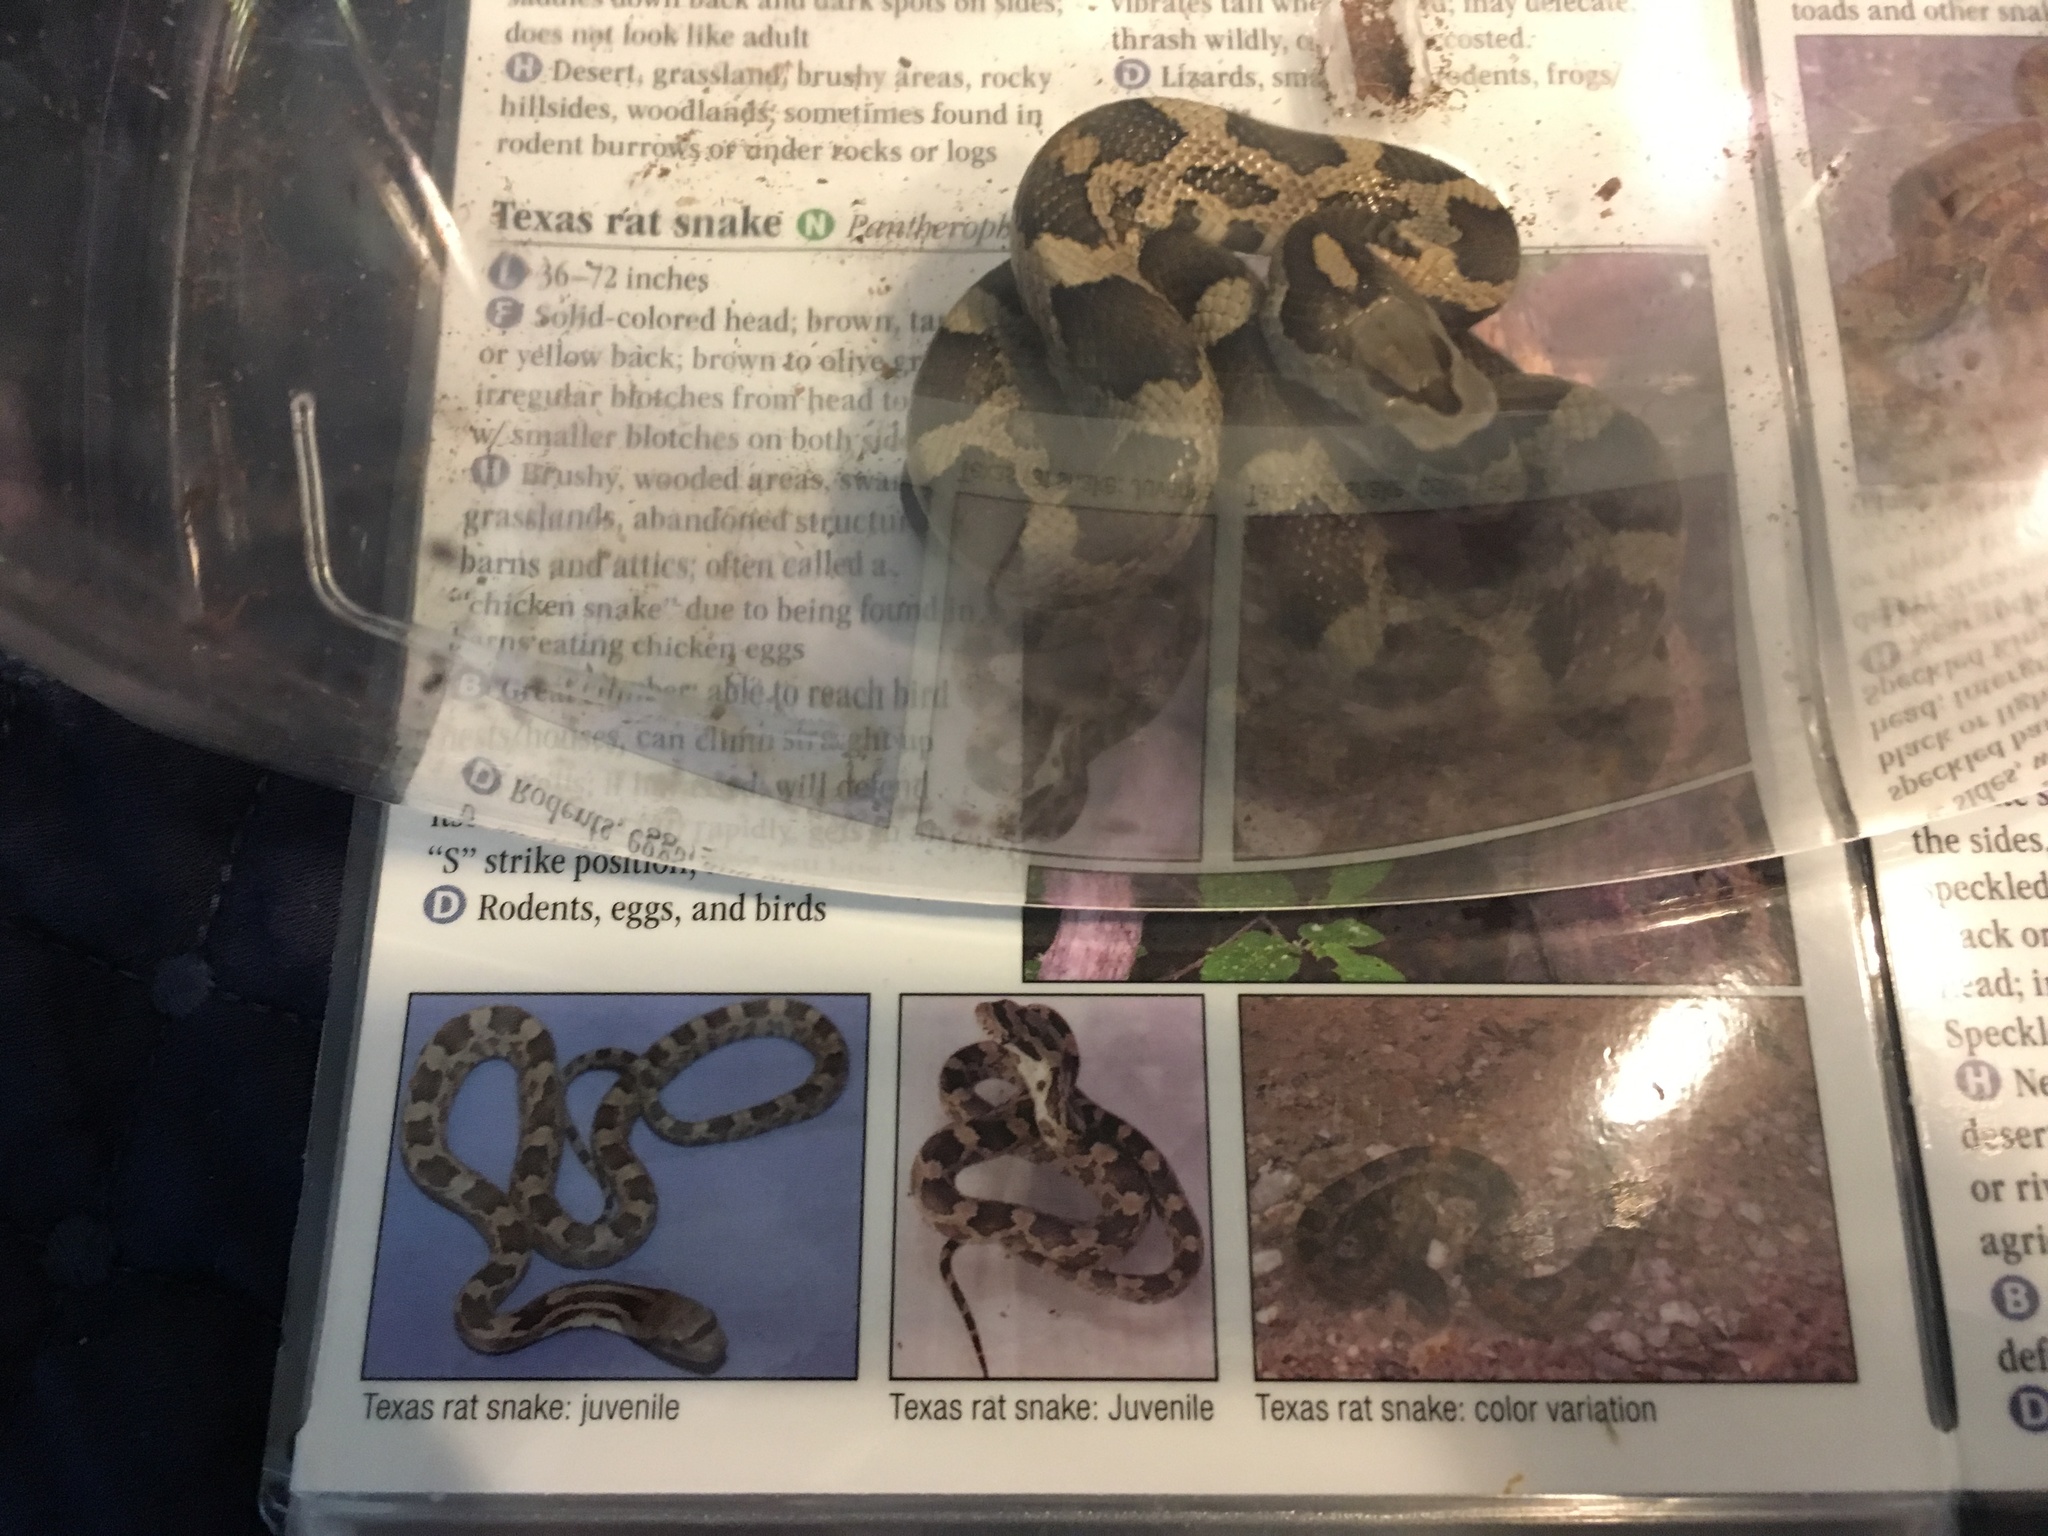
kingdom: Animalia
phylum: Chordata
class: Squamata
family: Colubridae
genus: Pantherophis
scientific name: Pantherophis obsoletus
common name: Black rat snake
